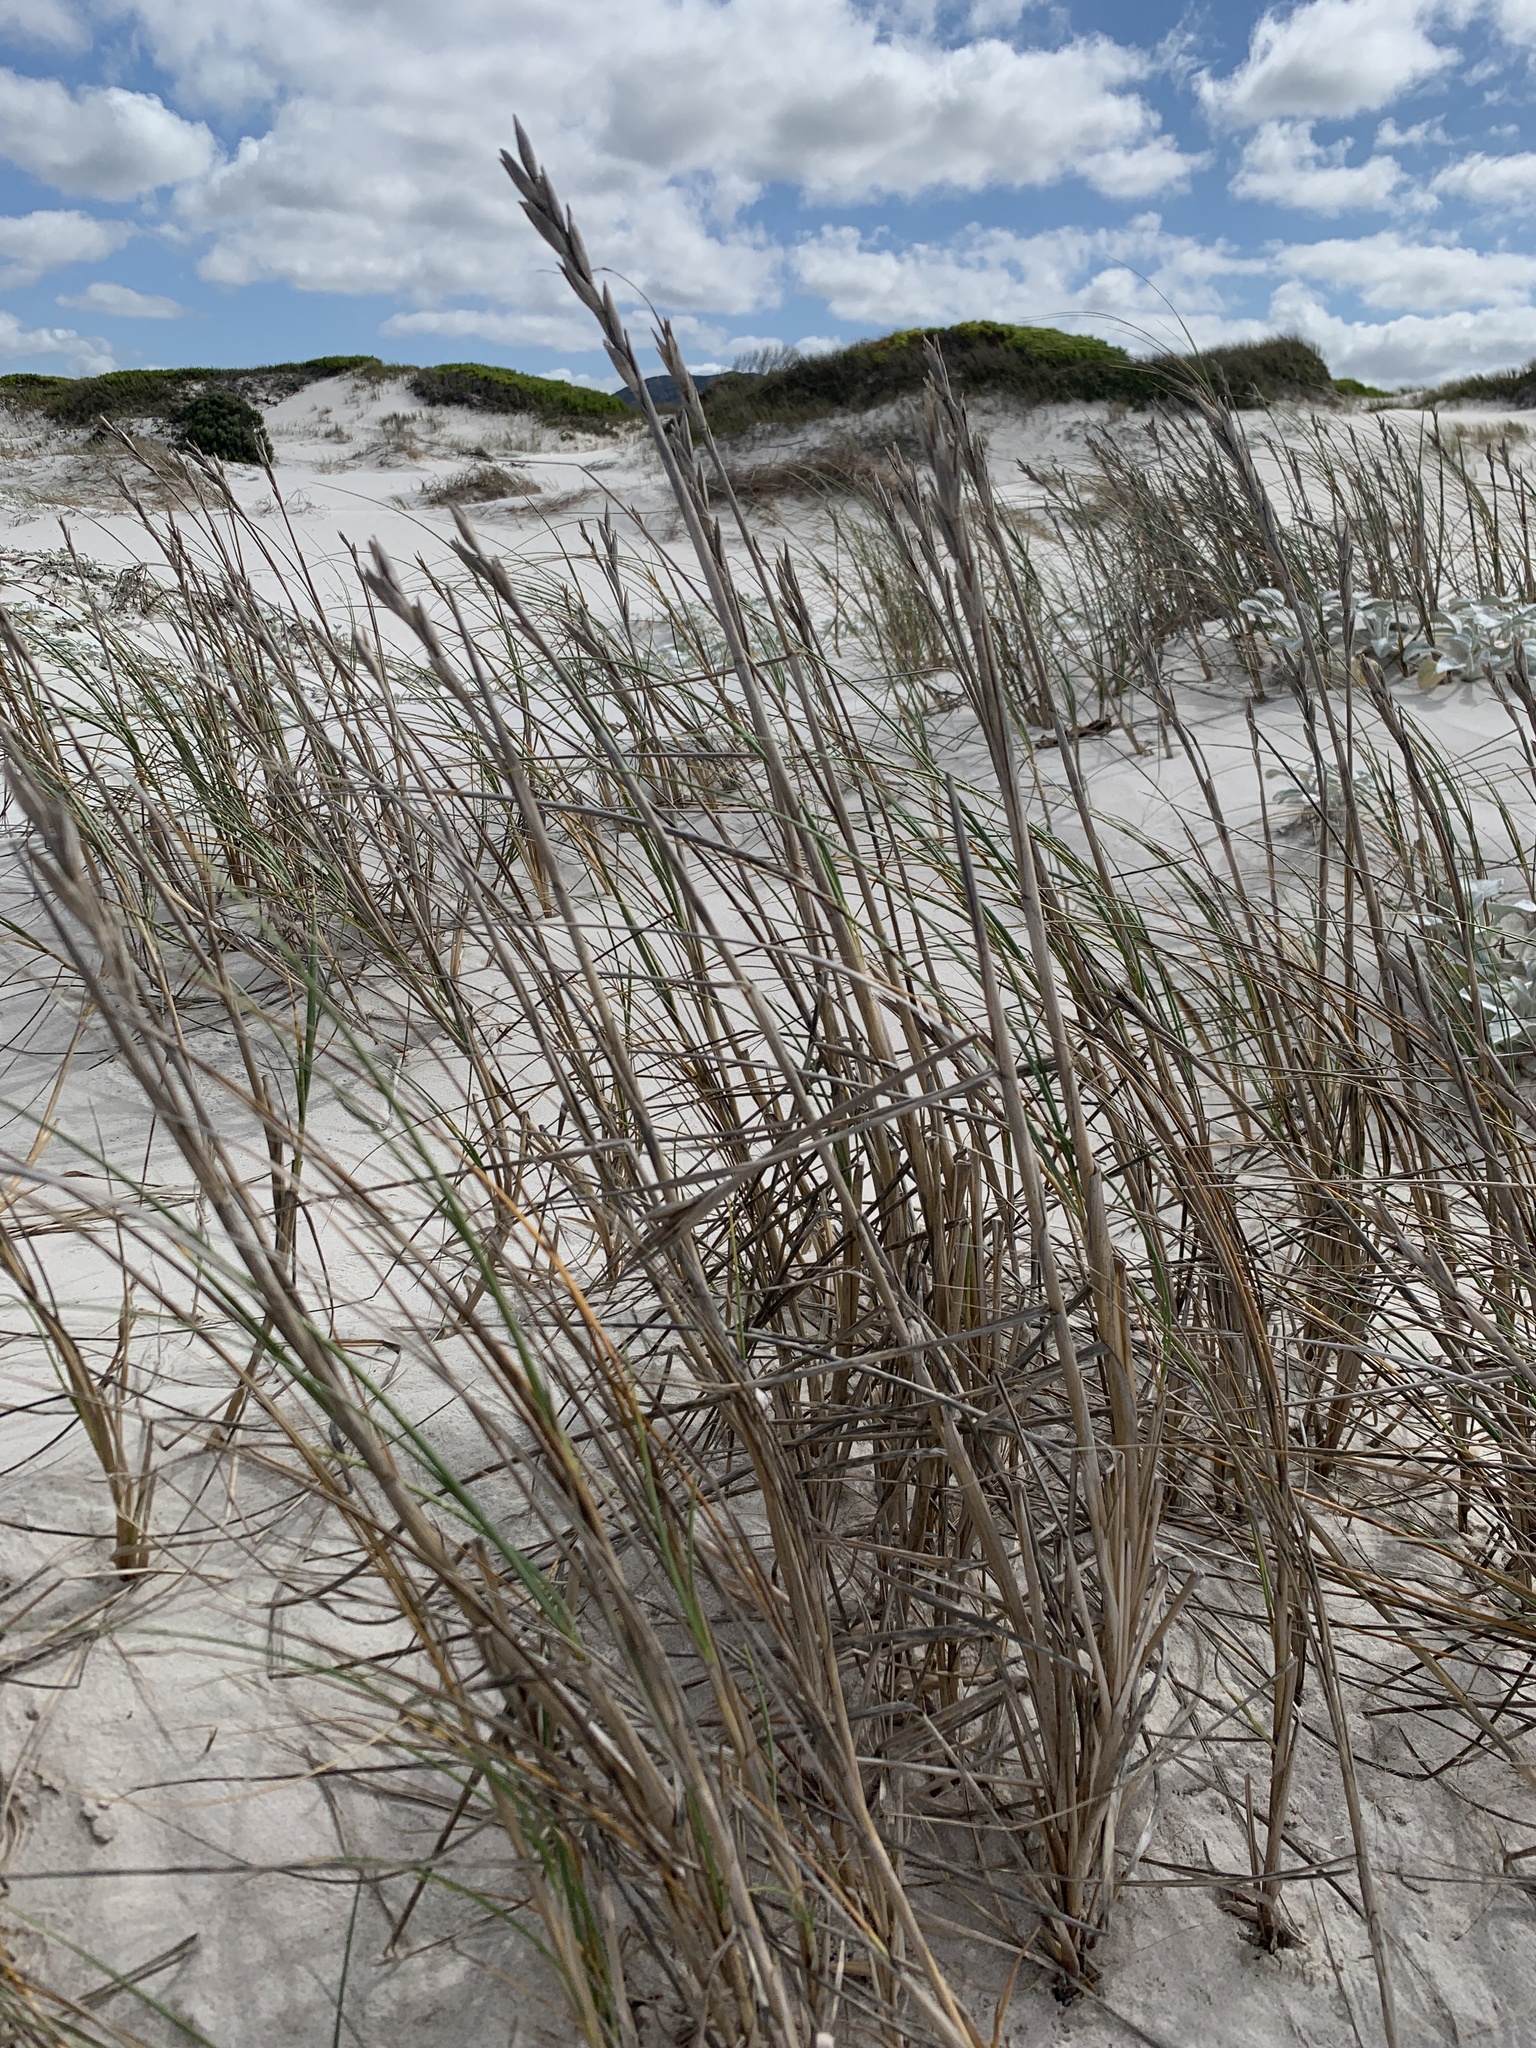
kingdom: Plantae
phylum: Tracheophyta
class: Liliopsida
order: Poales
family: Poaceae
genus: Thinopyrum
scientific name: Thinopyrum distichum
